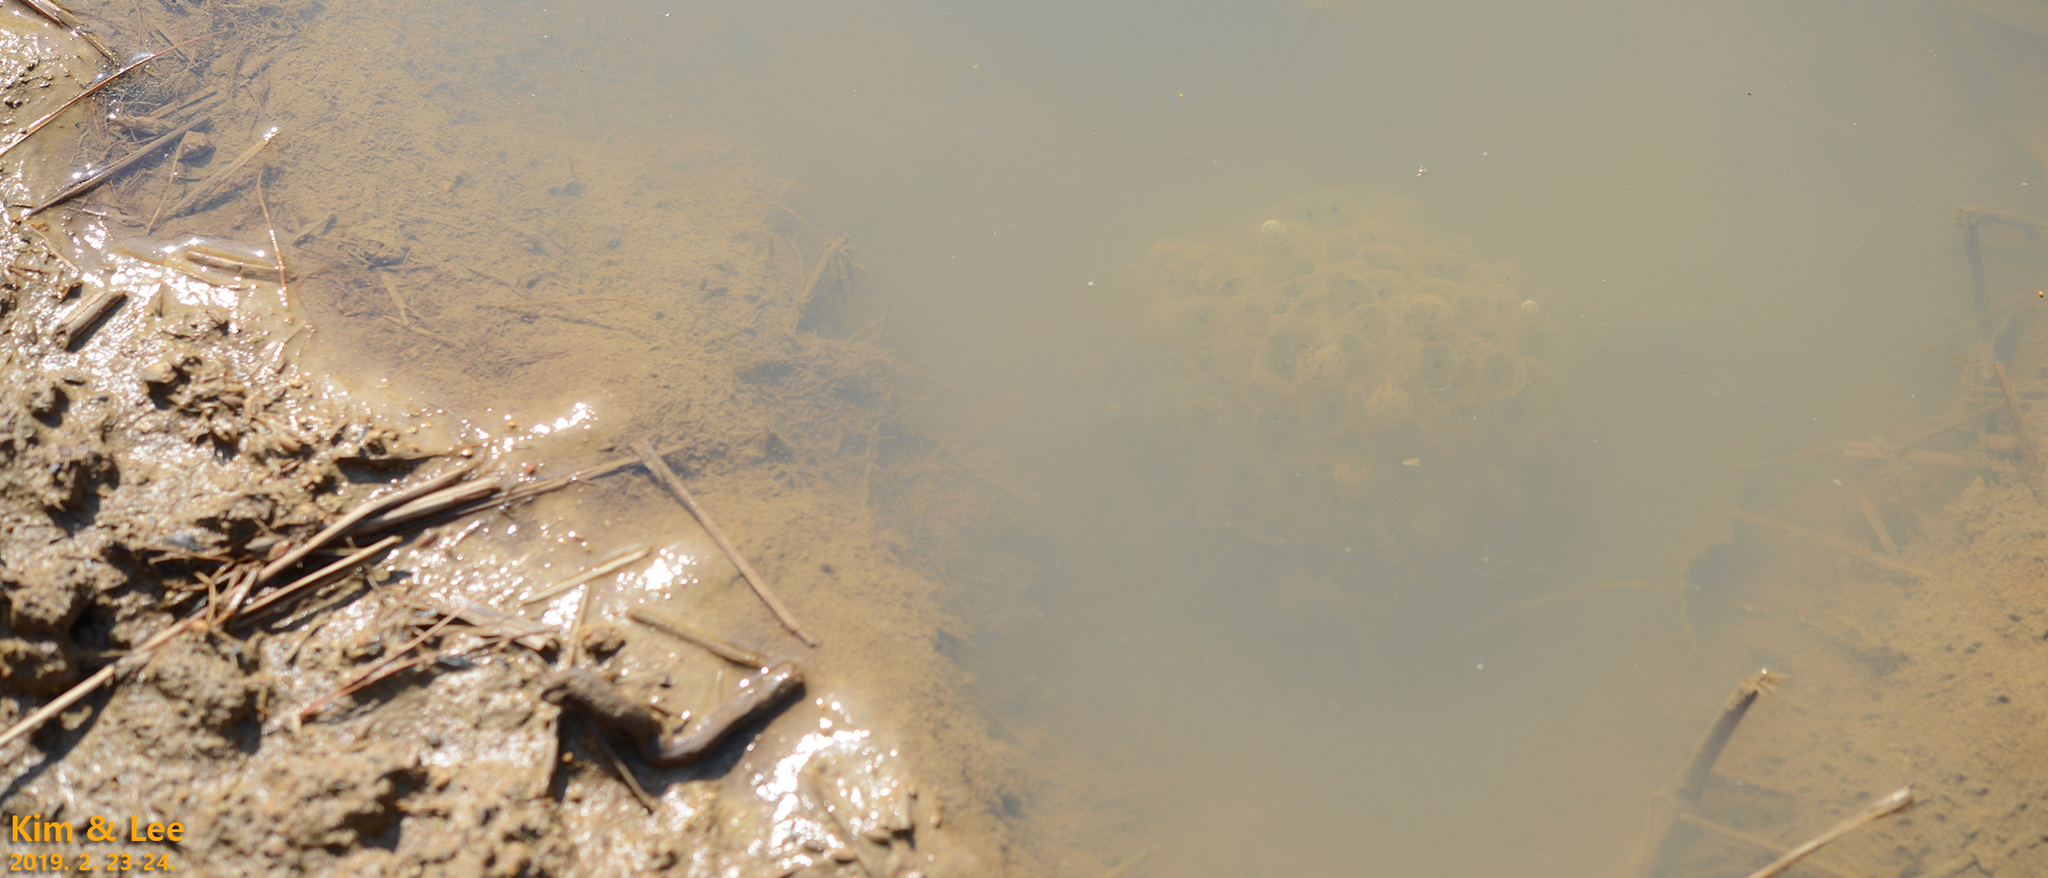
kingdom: Animalia
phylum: Chordata
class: Amphibia
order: Anura
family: Ranidae
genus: Rana
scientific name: Rana uenoi
